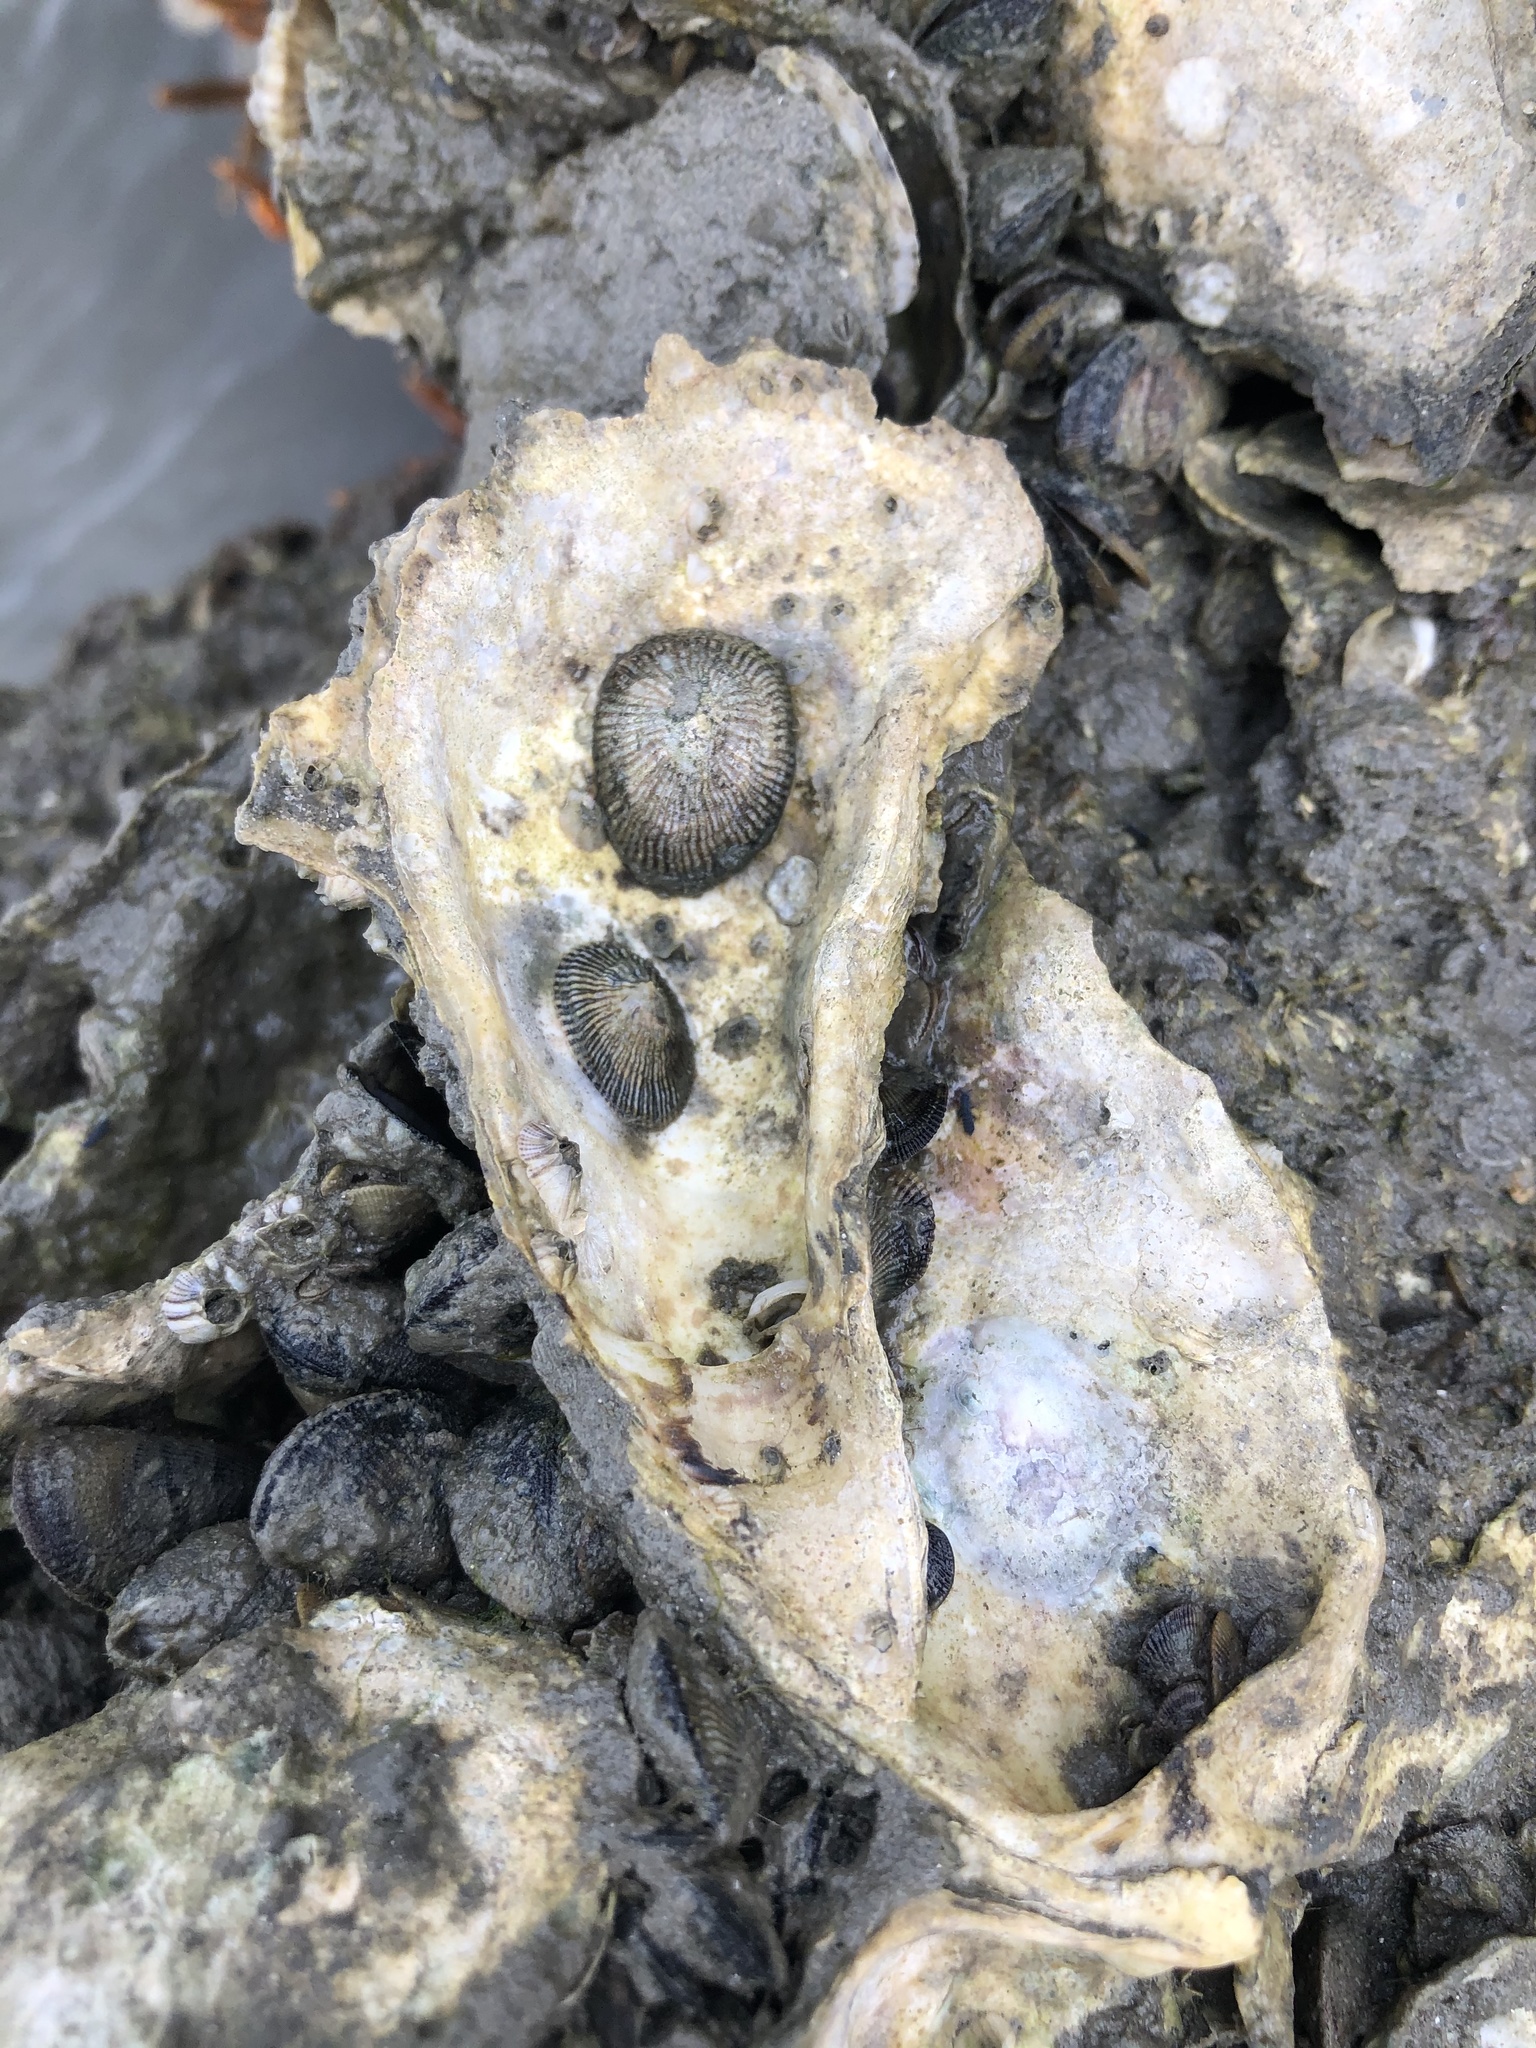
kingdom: Animalia
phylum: Mollusca
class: Gastropoda
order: Siphonariida
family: Siphonariidae
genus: Siphonaria
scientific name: Siphonaria naufragum
